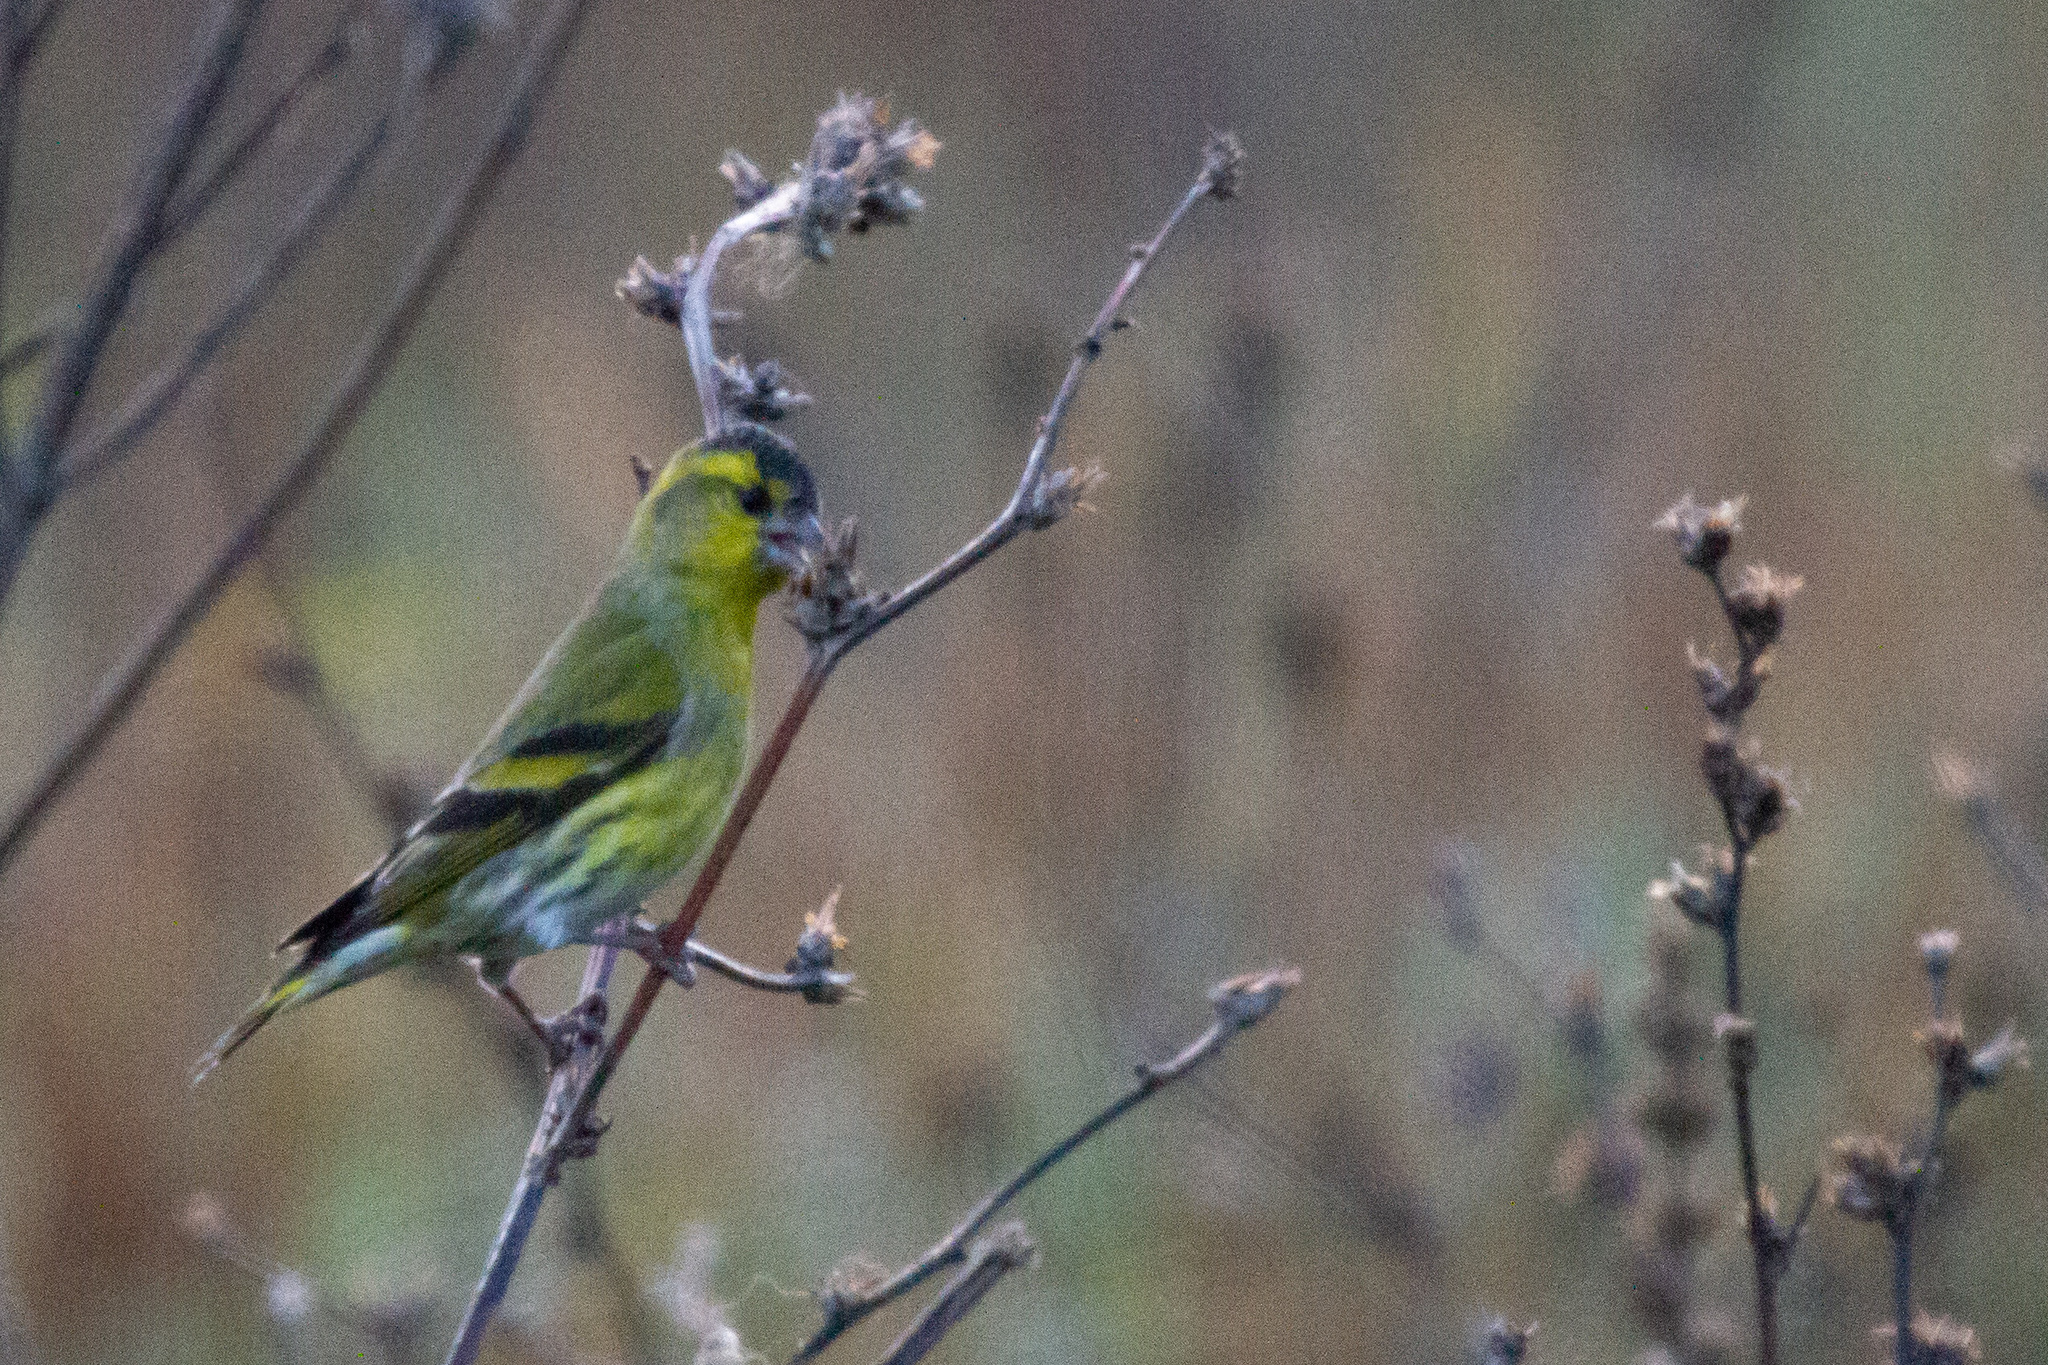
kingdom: Animalia
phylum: Chordata
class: Aves
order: Passeriformes
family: Fringillidae
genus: Spinus
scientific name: Spinus spinus
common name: Eurasian siskin
